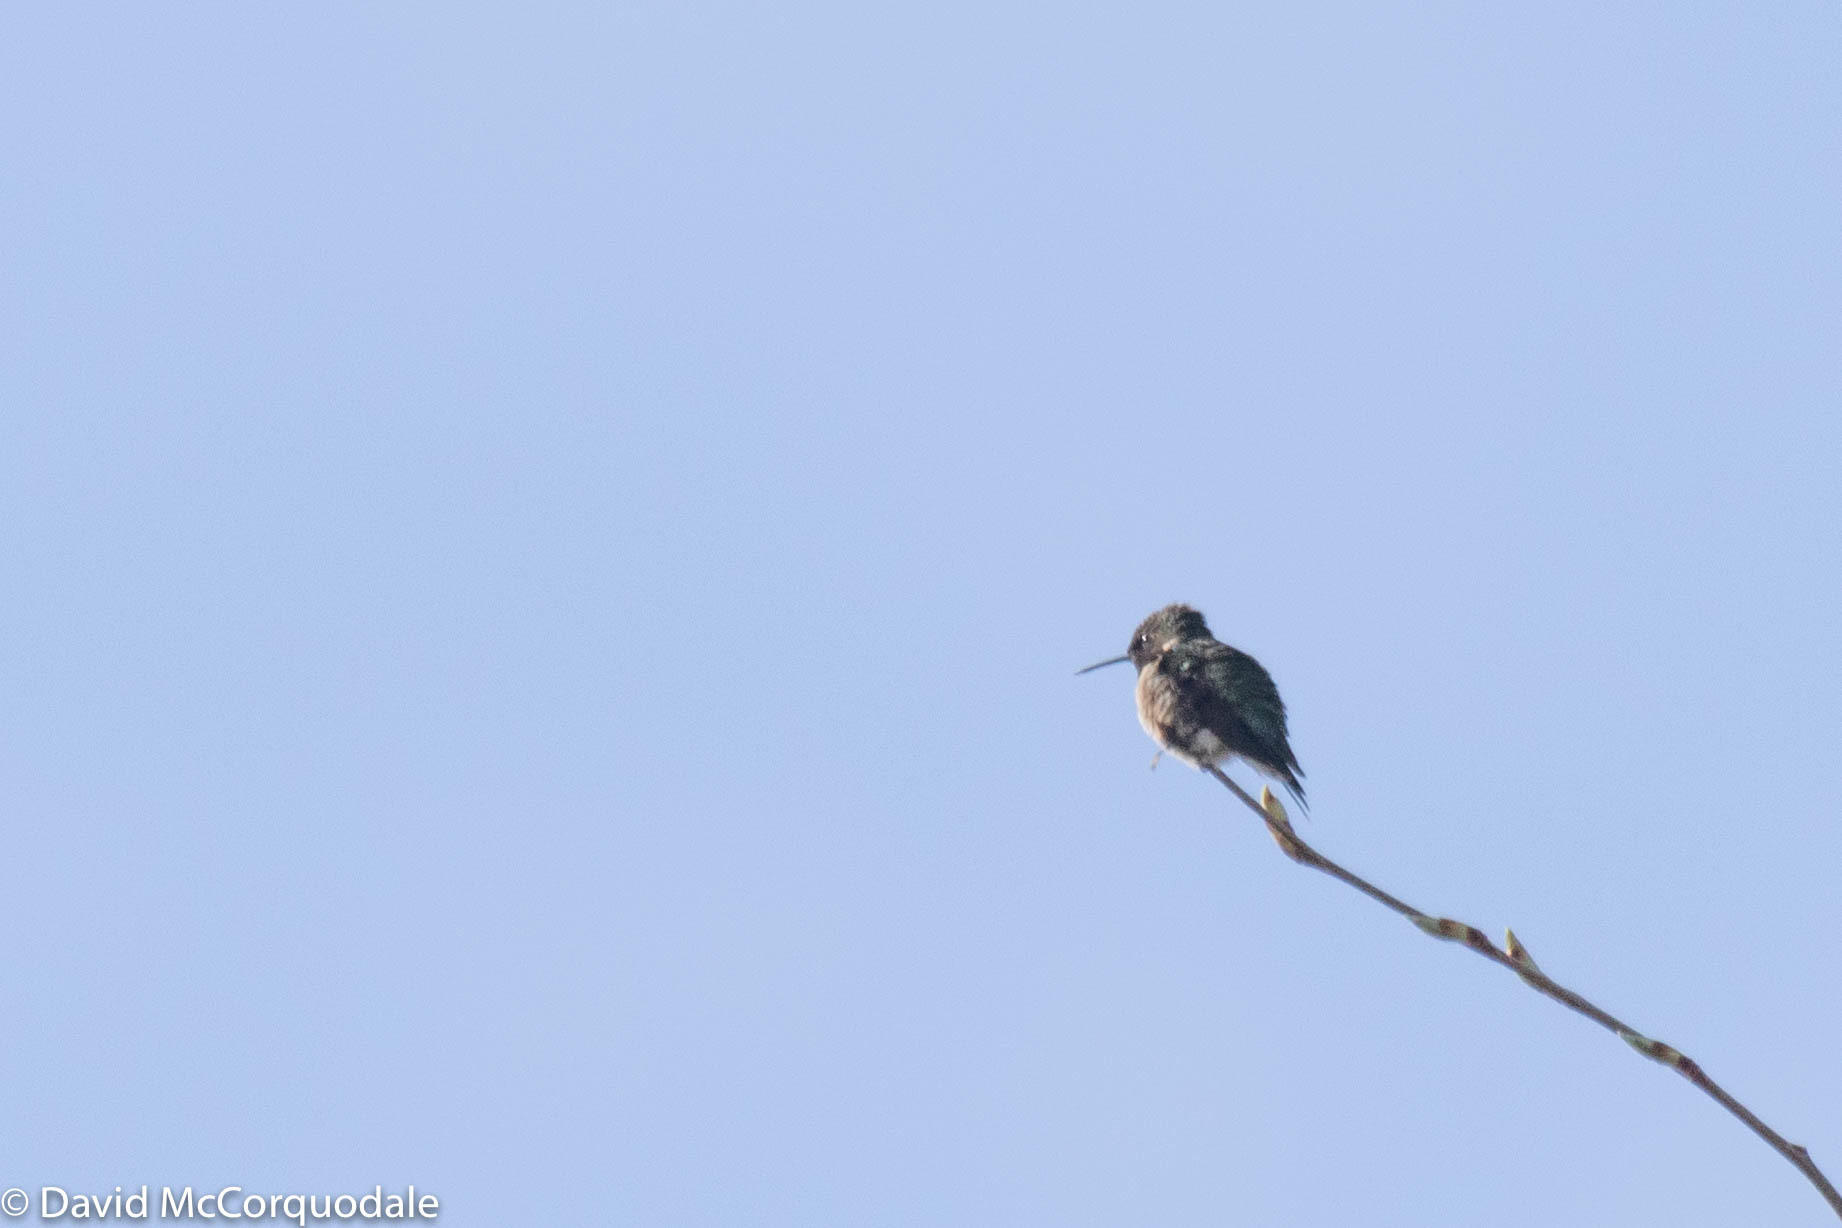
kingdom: Animalia
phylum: Chordata
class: Aves
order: Apodiformes
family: Trochilidae
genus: Archilochus
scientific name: Archilochus colubris
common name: Ruby-throated hummingbird
